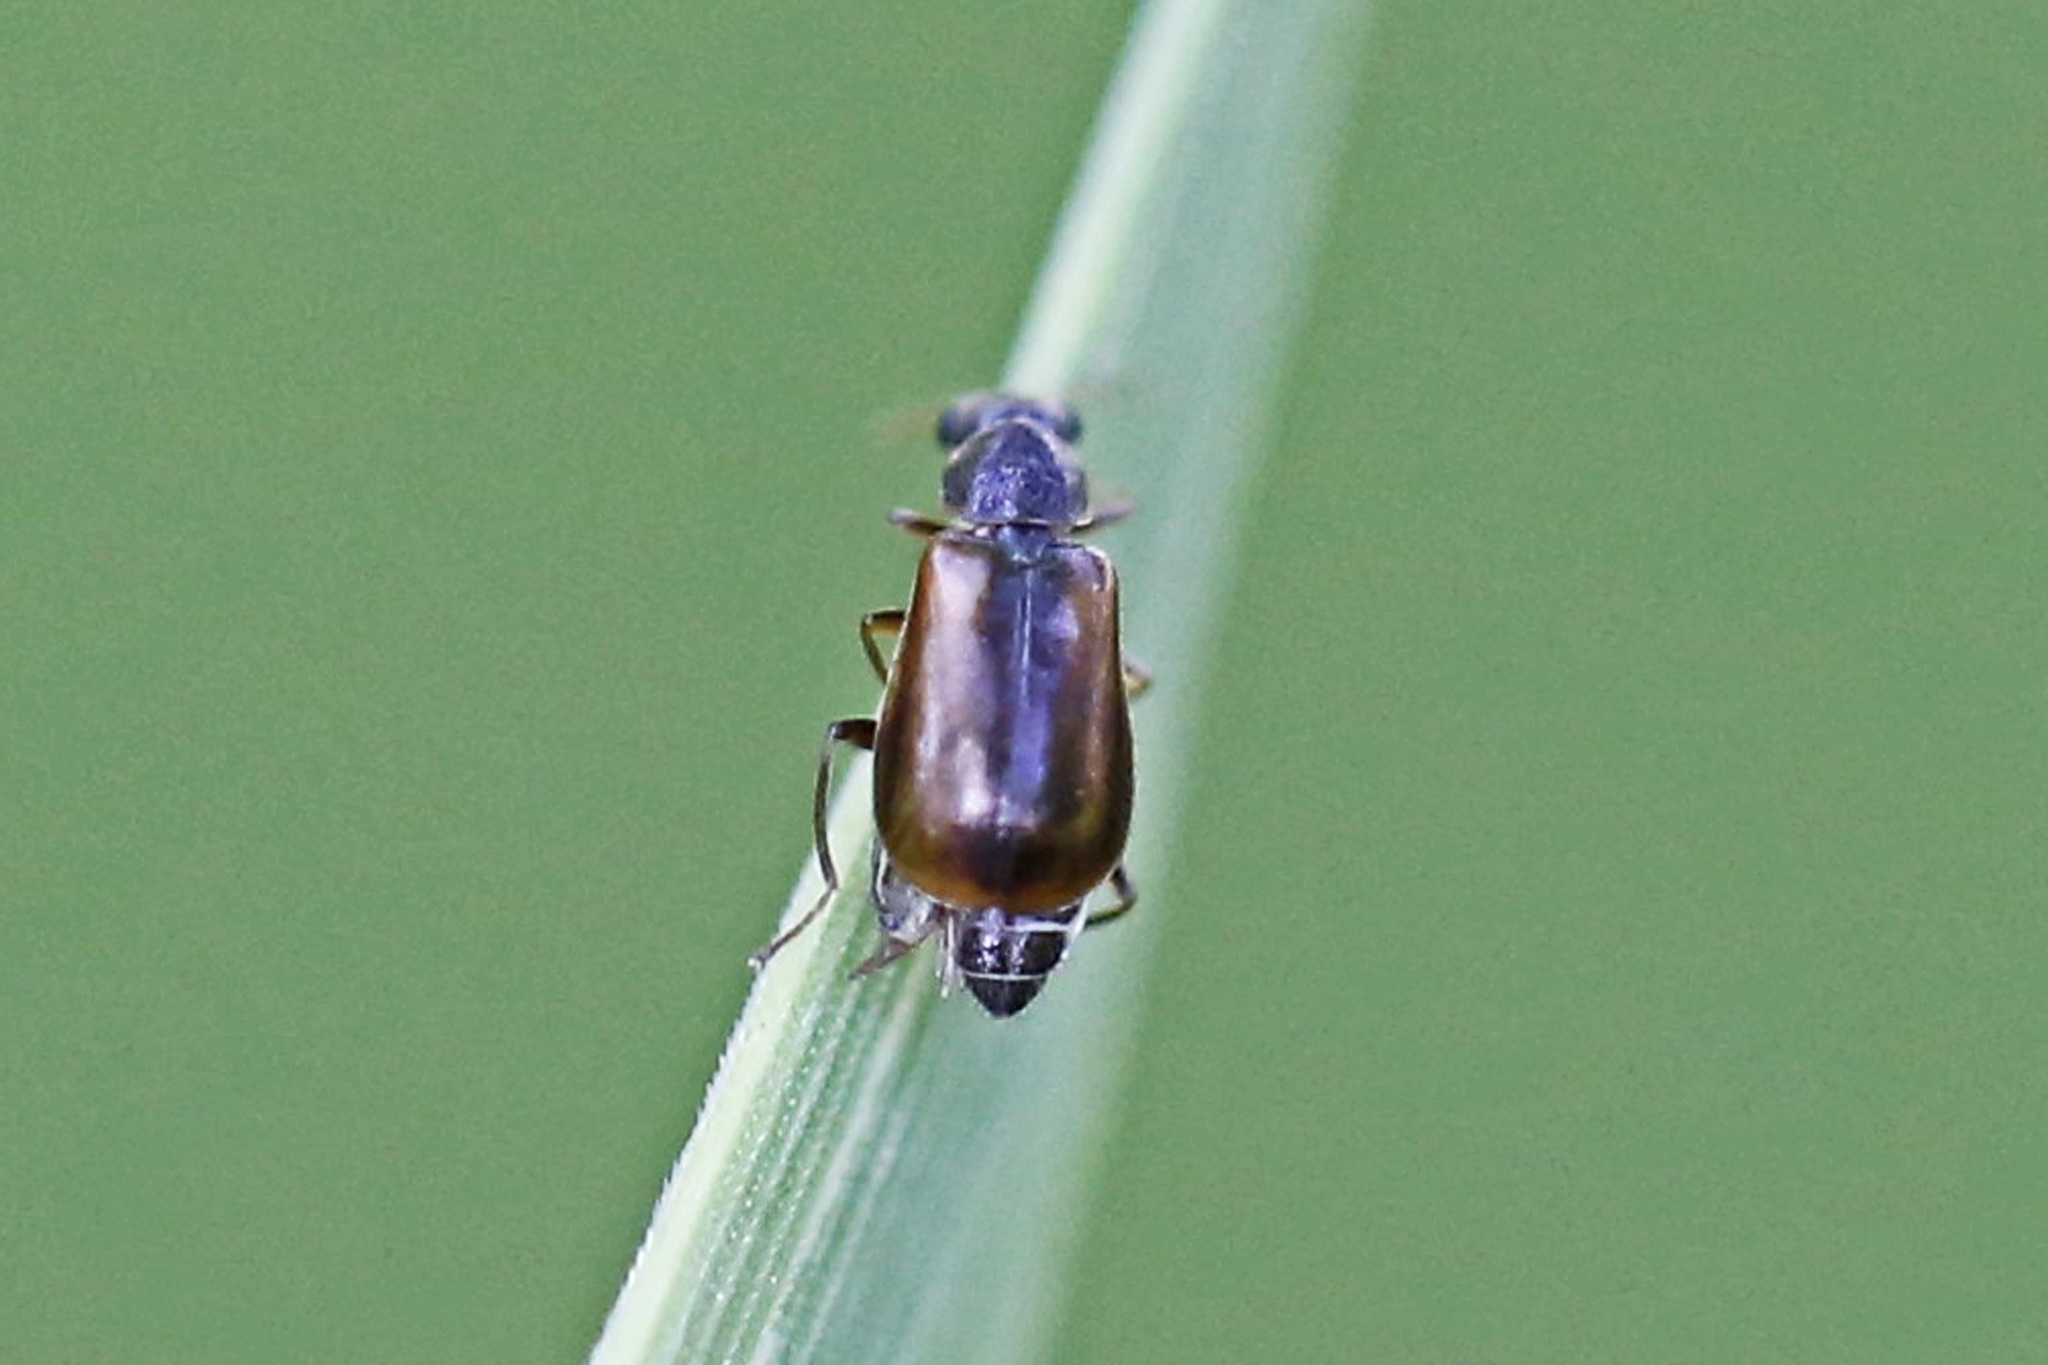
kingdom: Animalia
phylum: Arthropoda
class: Insecta
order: Coleoptera
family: Malachiidae
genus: Attalus
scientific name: Attalus
